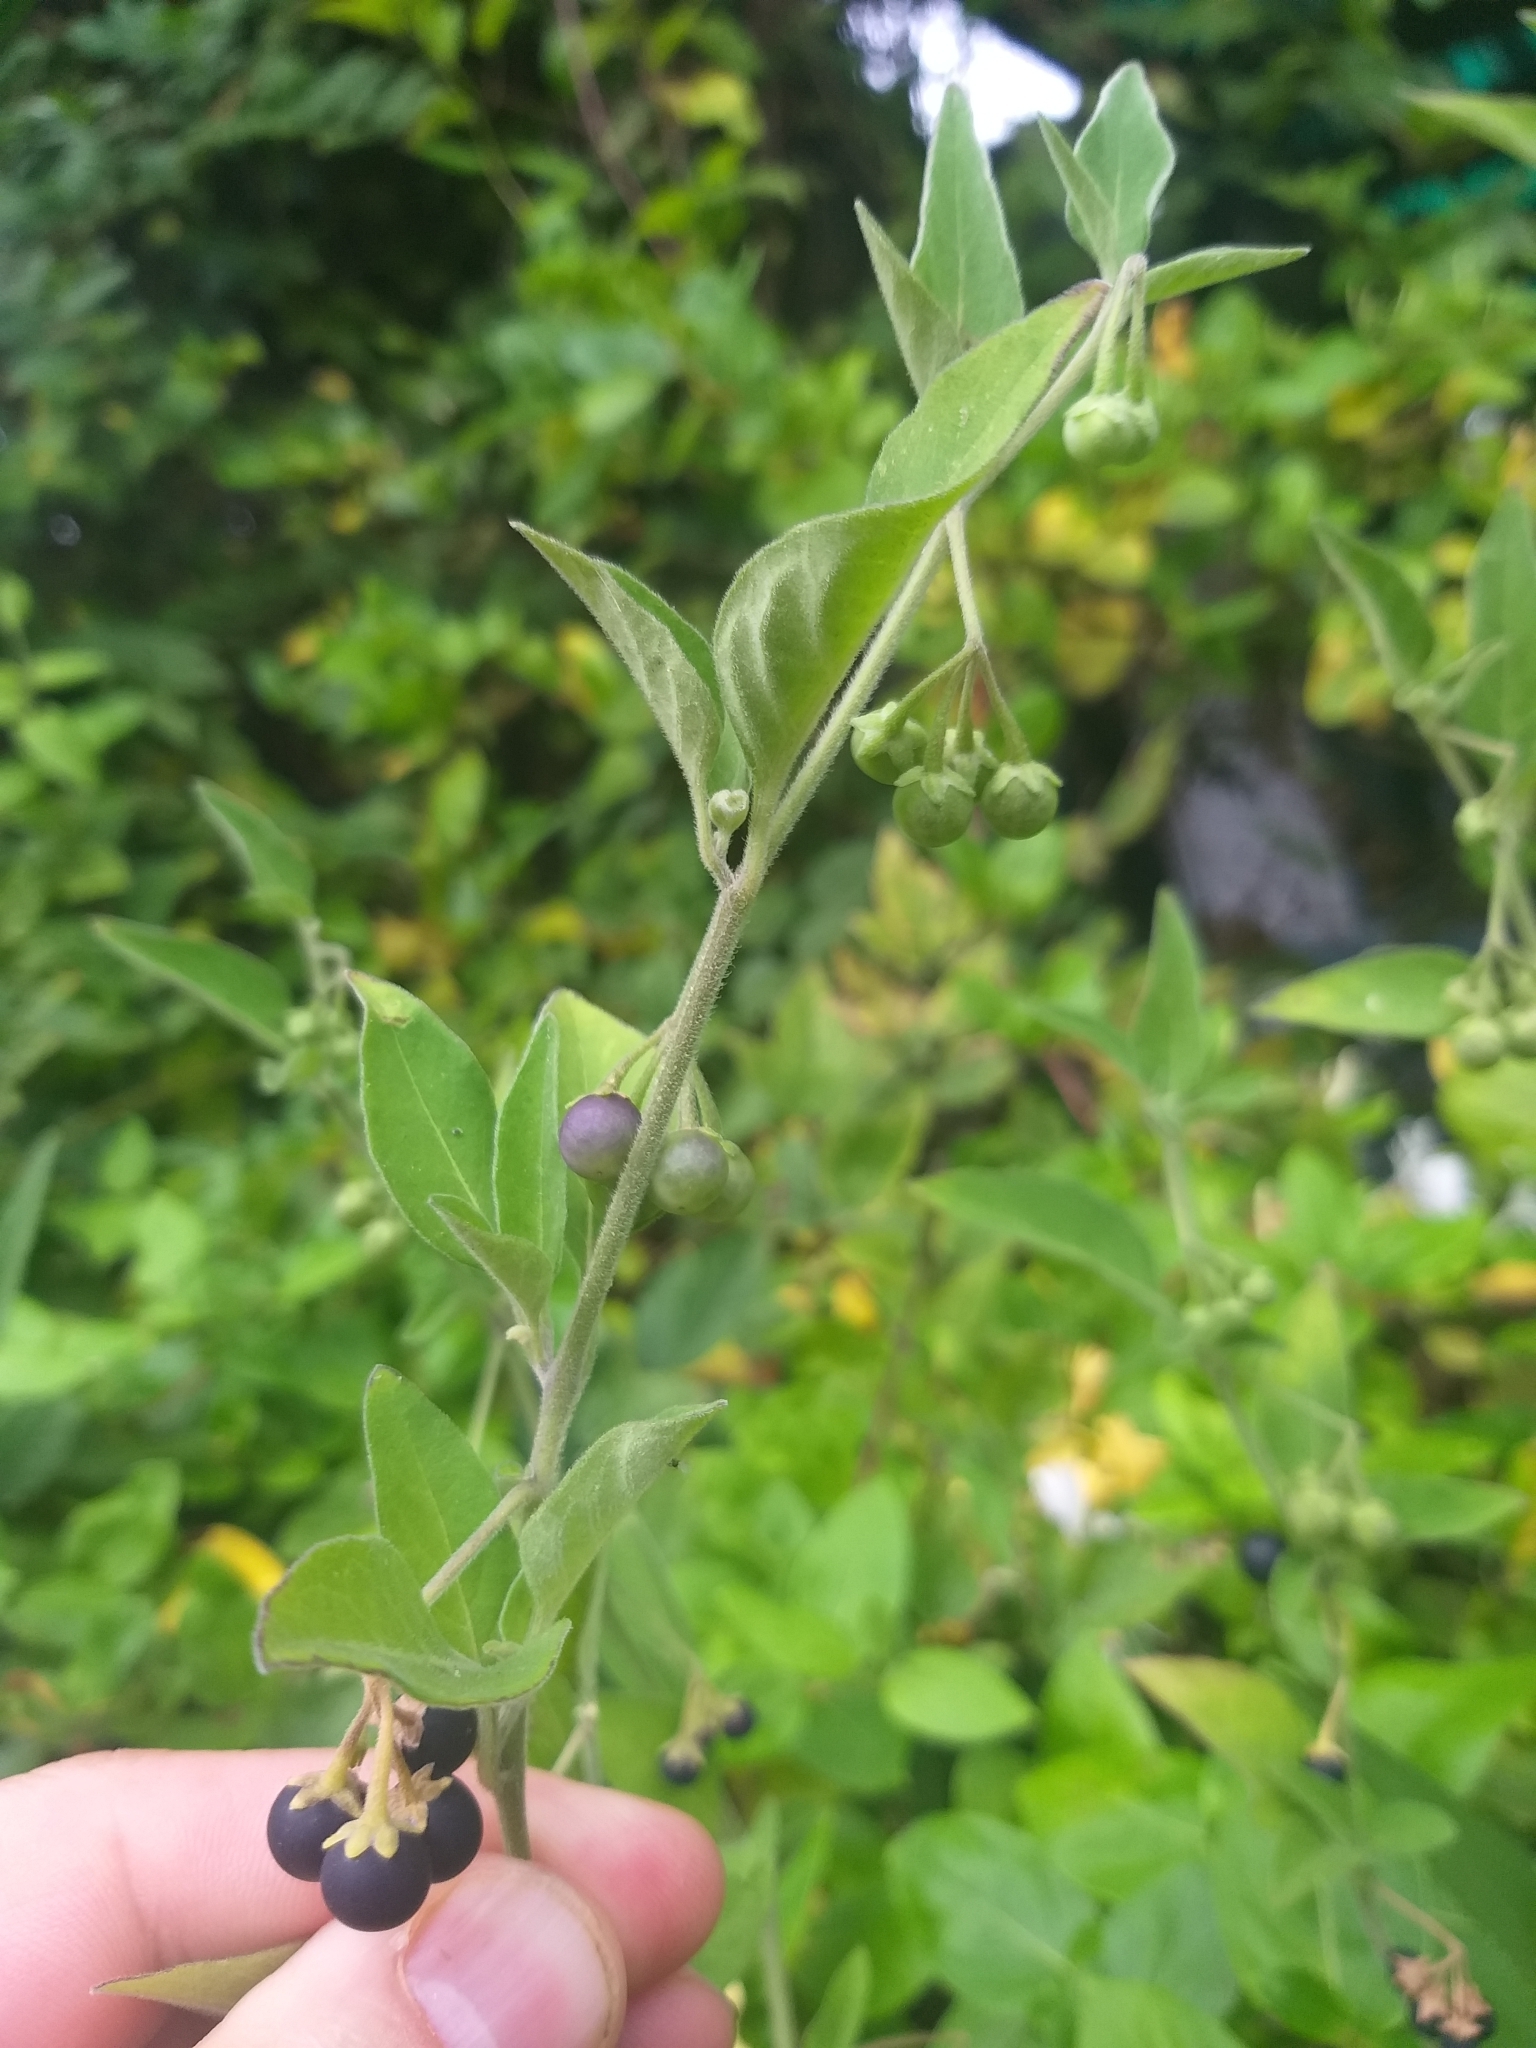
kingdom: Plantae
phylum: Tracheophyta
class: Magnoliopsida
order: Solanales
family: Solanaceae
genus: Solanum
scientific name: Solanum chenopodioides
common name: Tall nightshade
